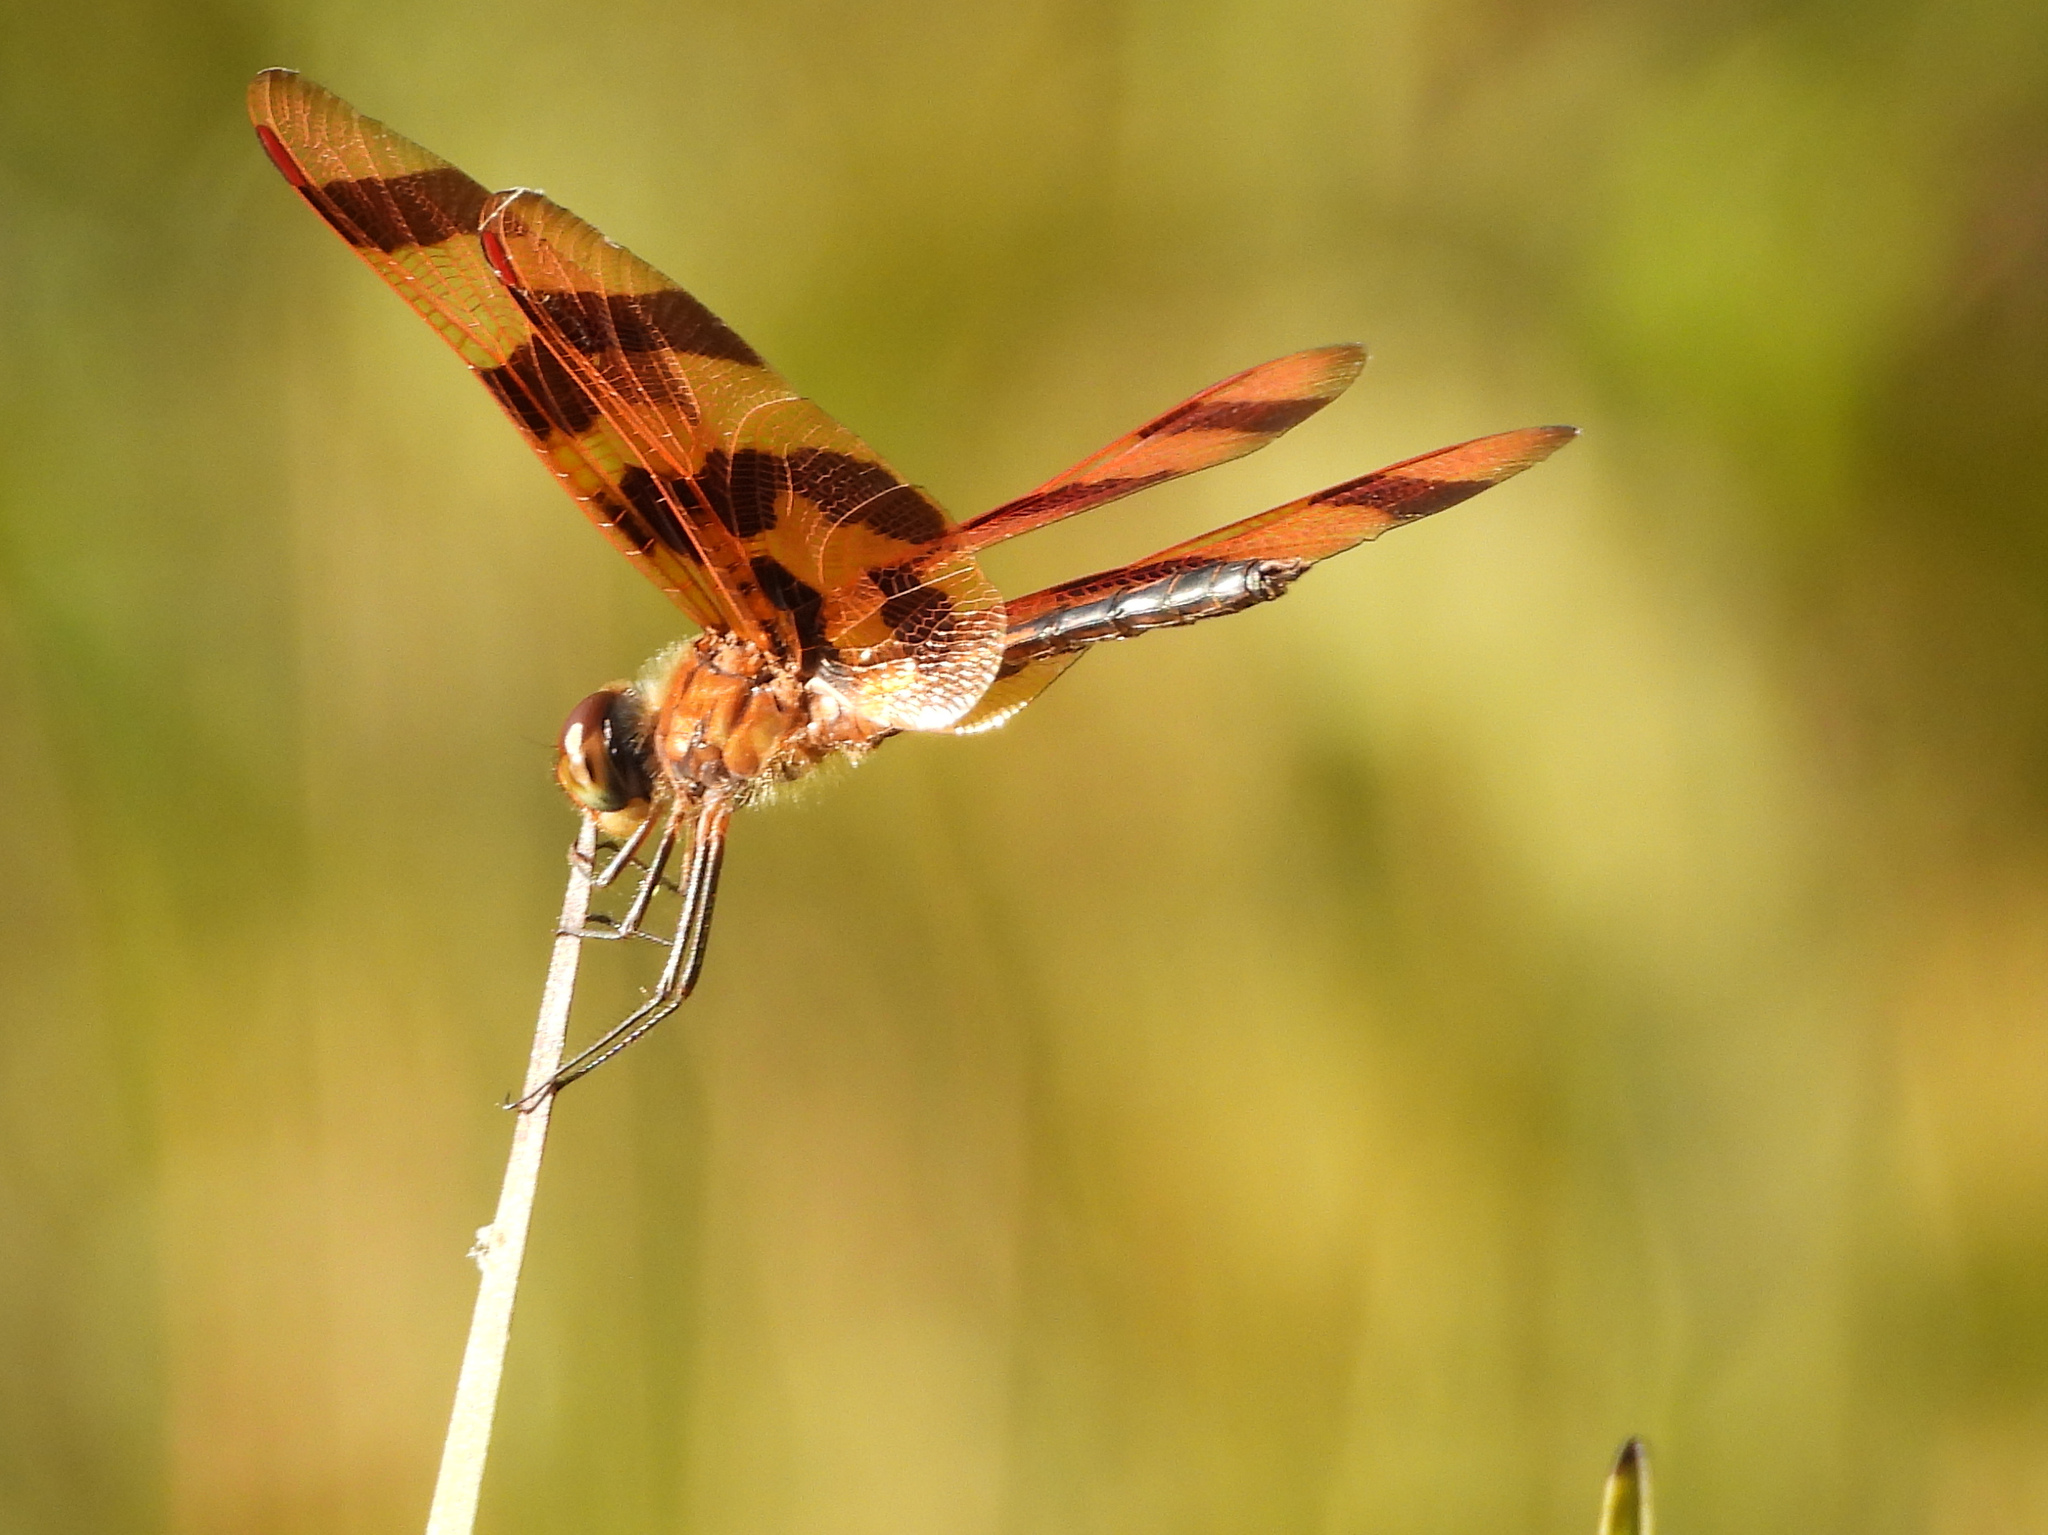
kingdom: Animalia
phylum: Arthropoda
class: Insecta
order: Odonata
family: Libellulidae
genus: Celithemis
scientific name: Celithemis eponina
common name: Halloween pennant
